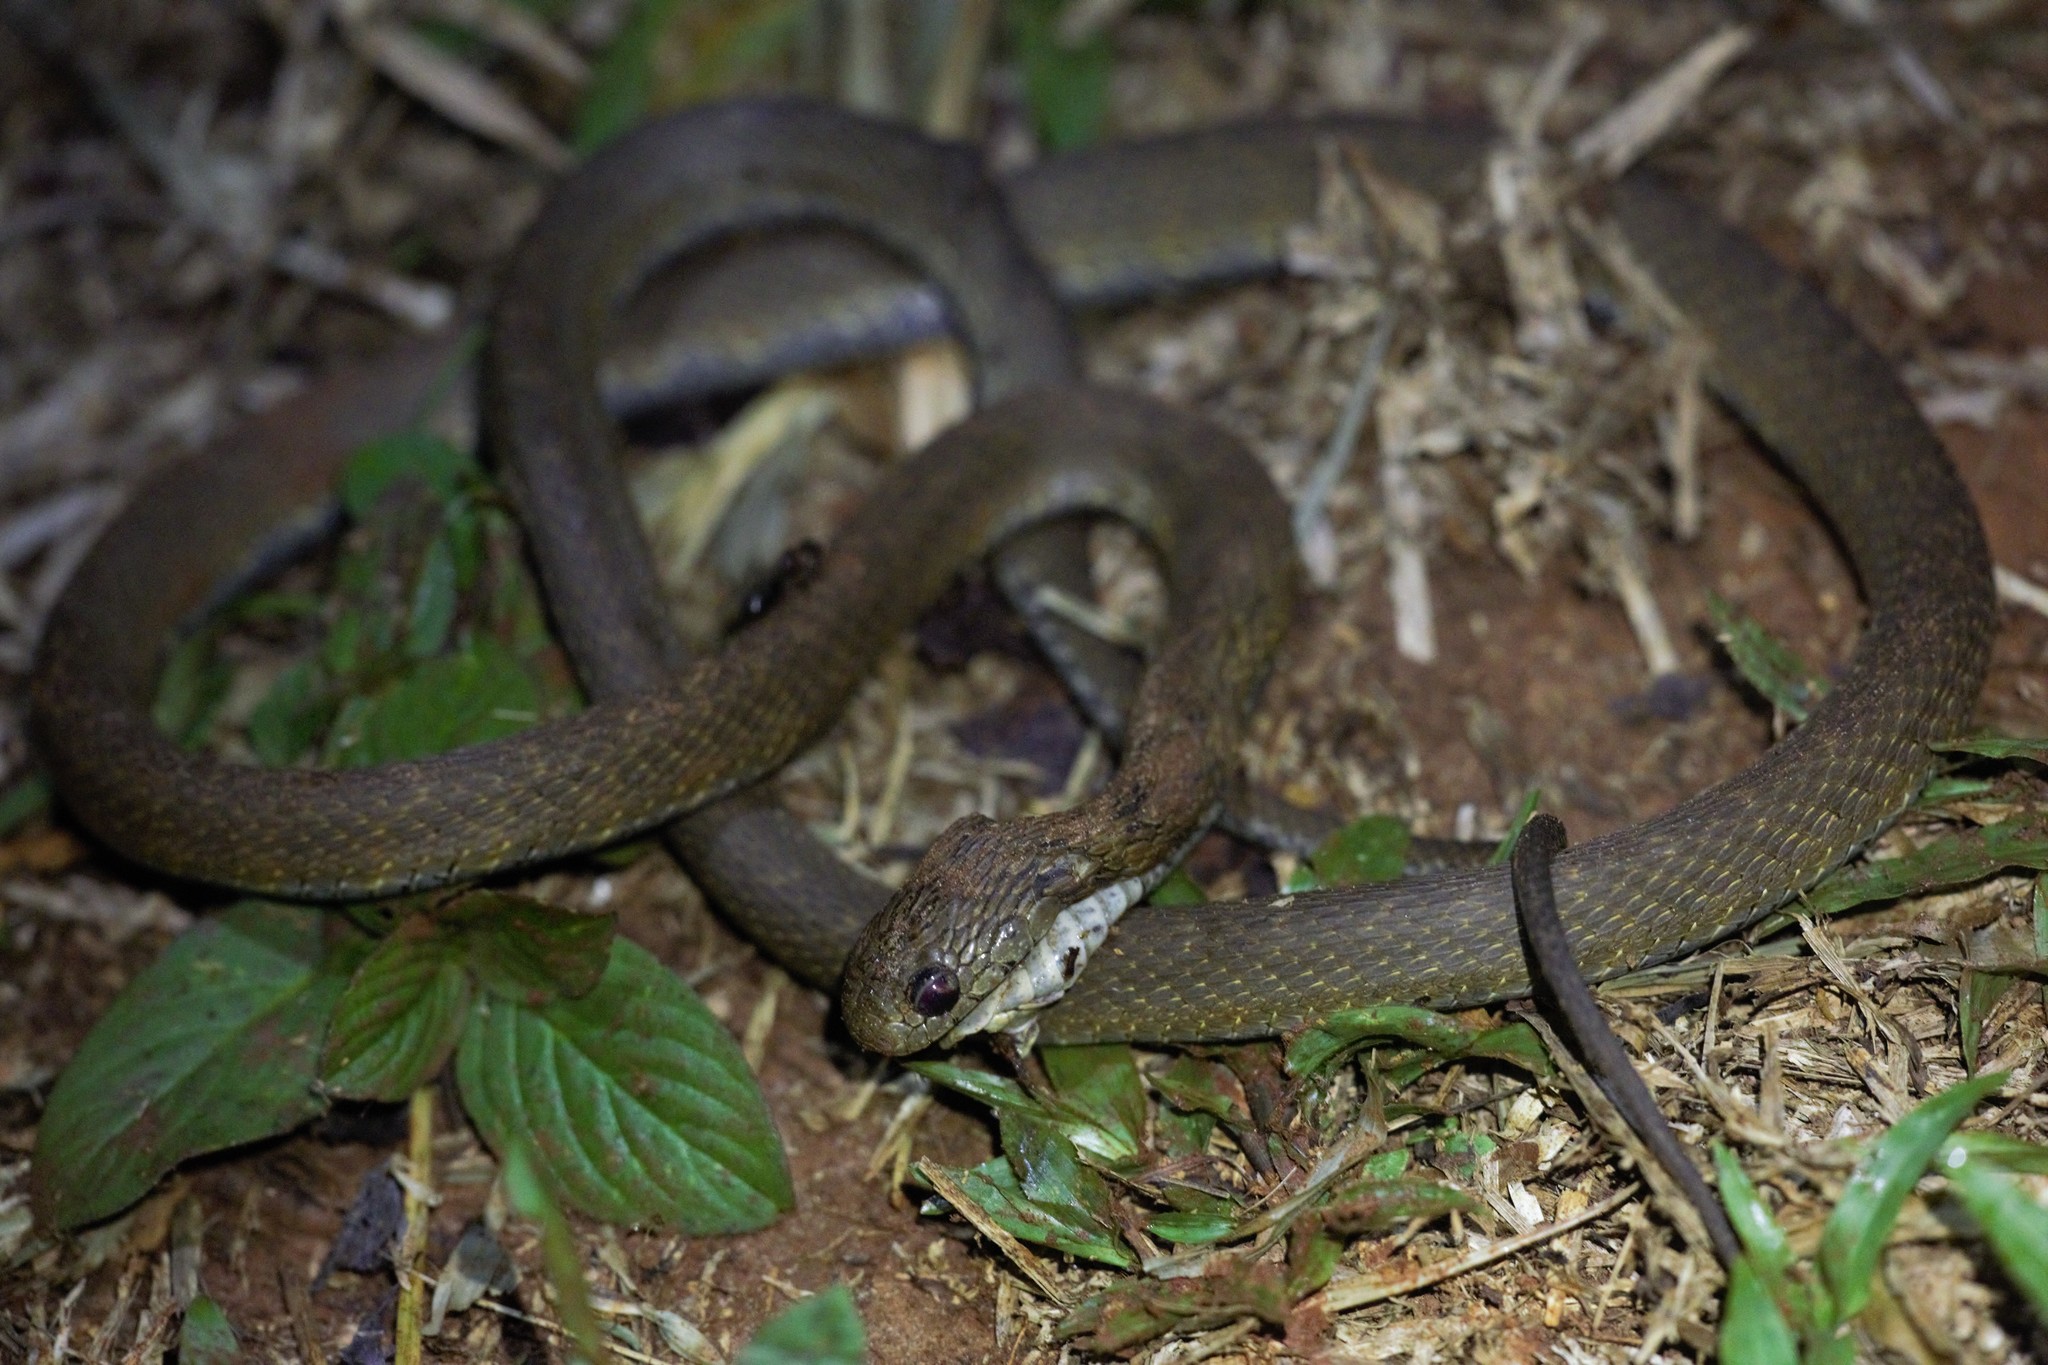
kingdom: Animalia
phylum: Chordata
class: Squamata
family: Colubridae
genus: Dasypeltis
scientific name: Dasypeltis fasciata
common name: Central african egg-eating snake
